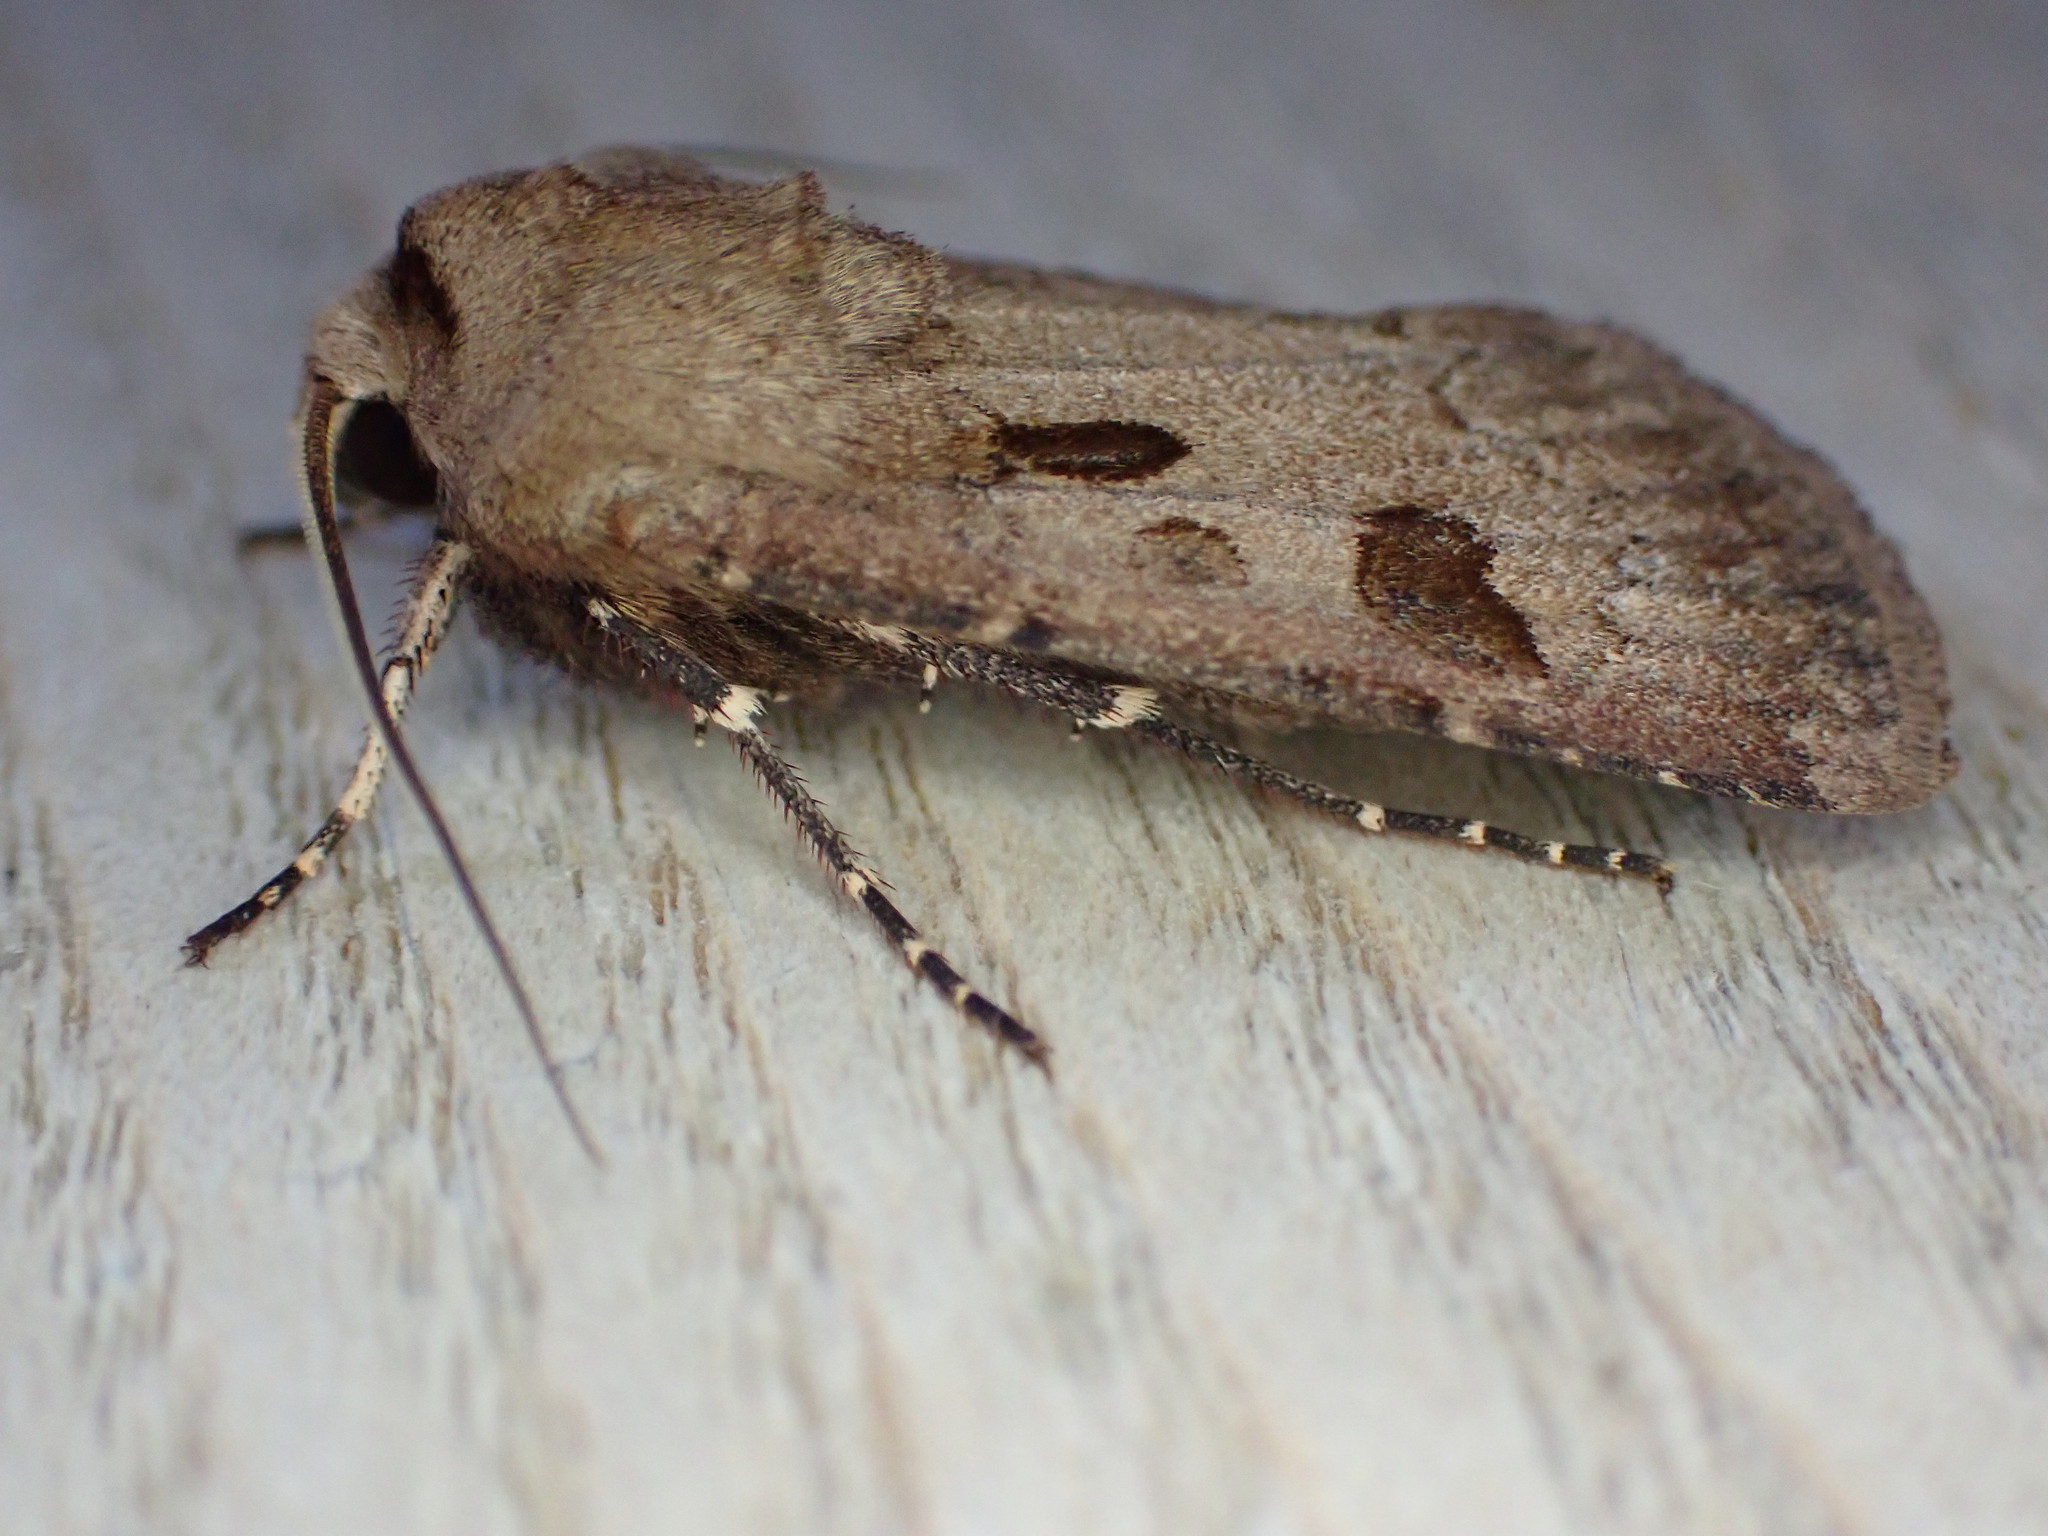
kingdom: Animalia
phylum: Arthropoda
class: Insecta
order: Lepidoptera
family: Noctuidae
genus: Agrotis
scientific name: Agrotis exclamationis
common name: Heart and dart
